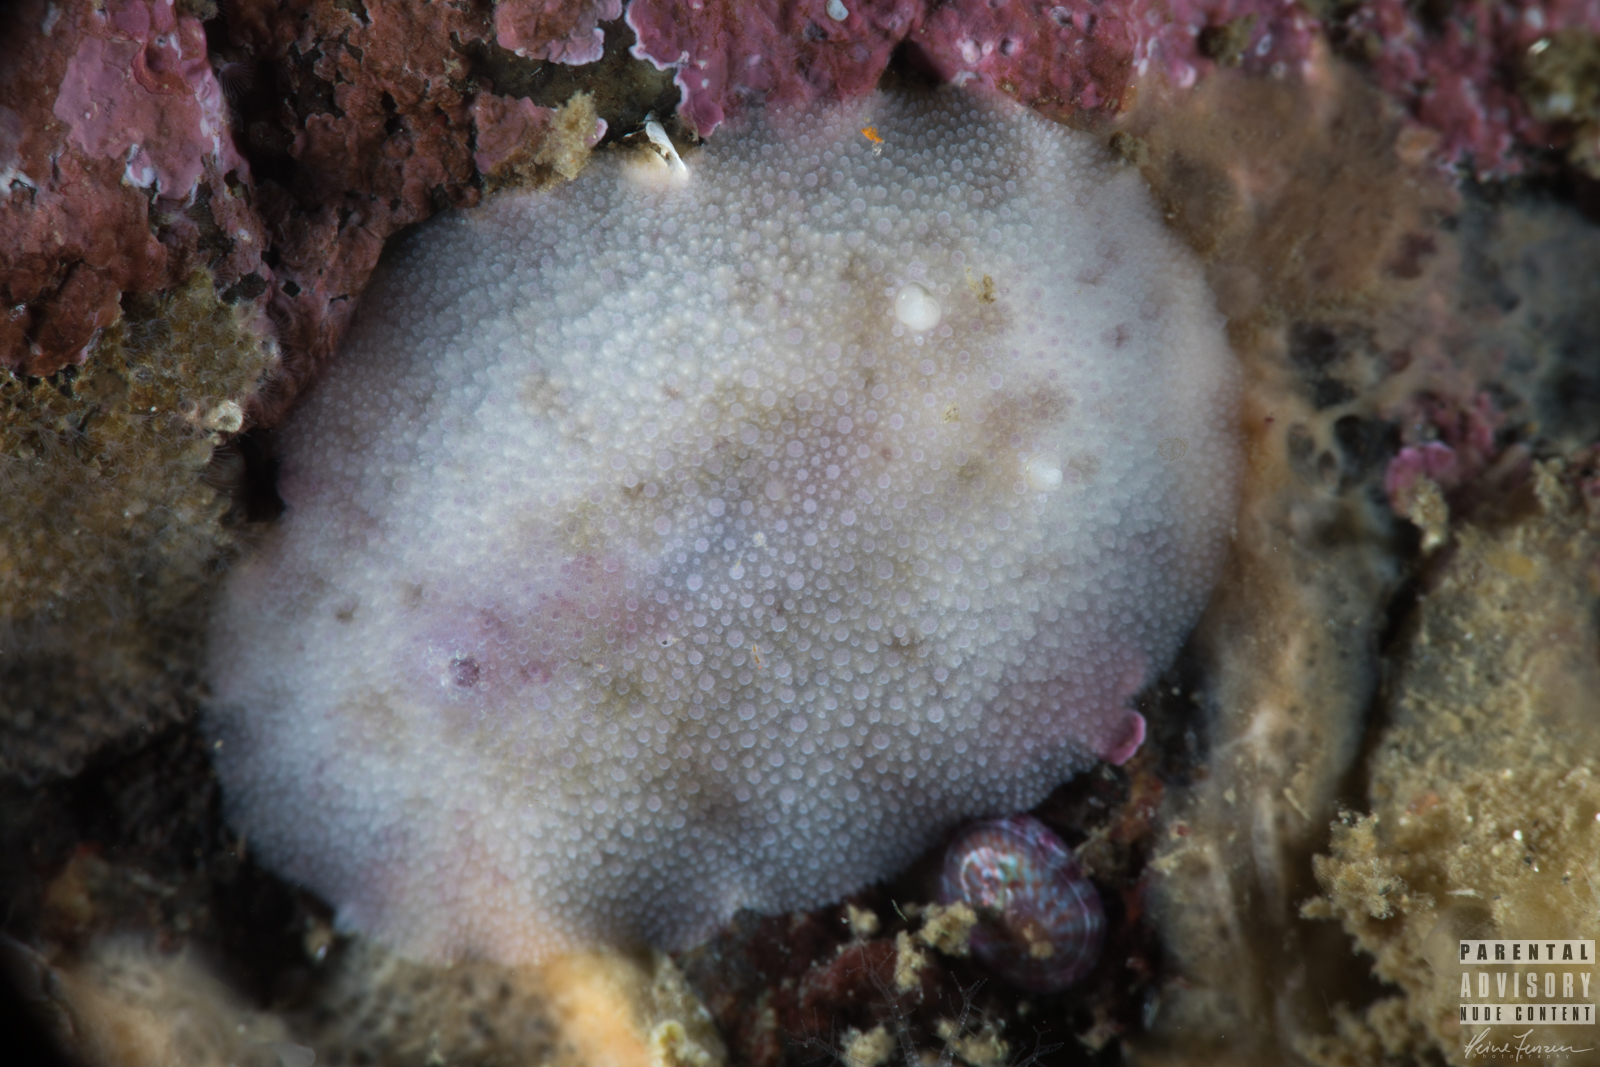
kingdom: Animalia
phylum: Mollusca
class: Gastropoda
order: Nudibranchia
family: Dorididae
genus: Doris
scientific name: Doris pseudoargus
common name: Sea lemon
